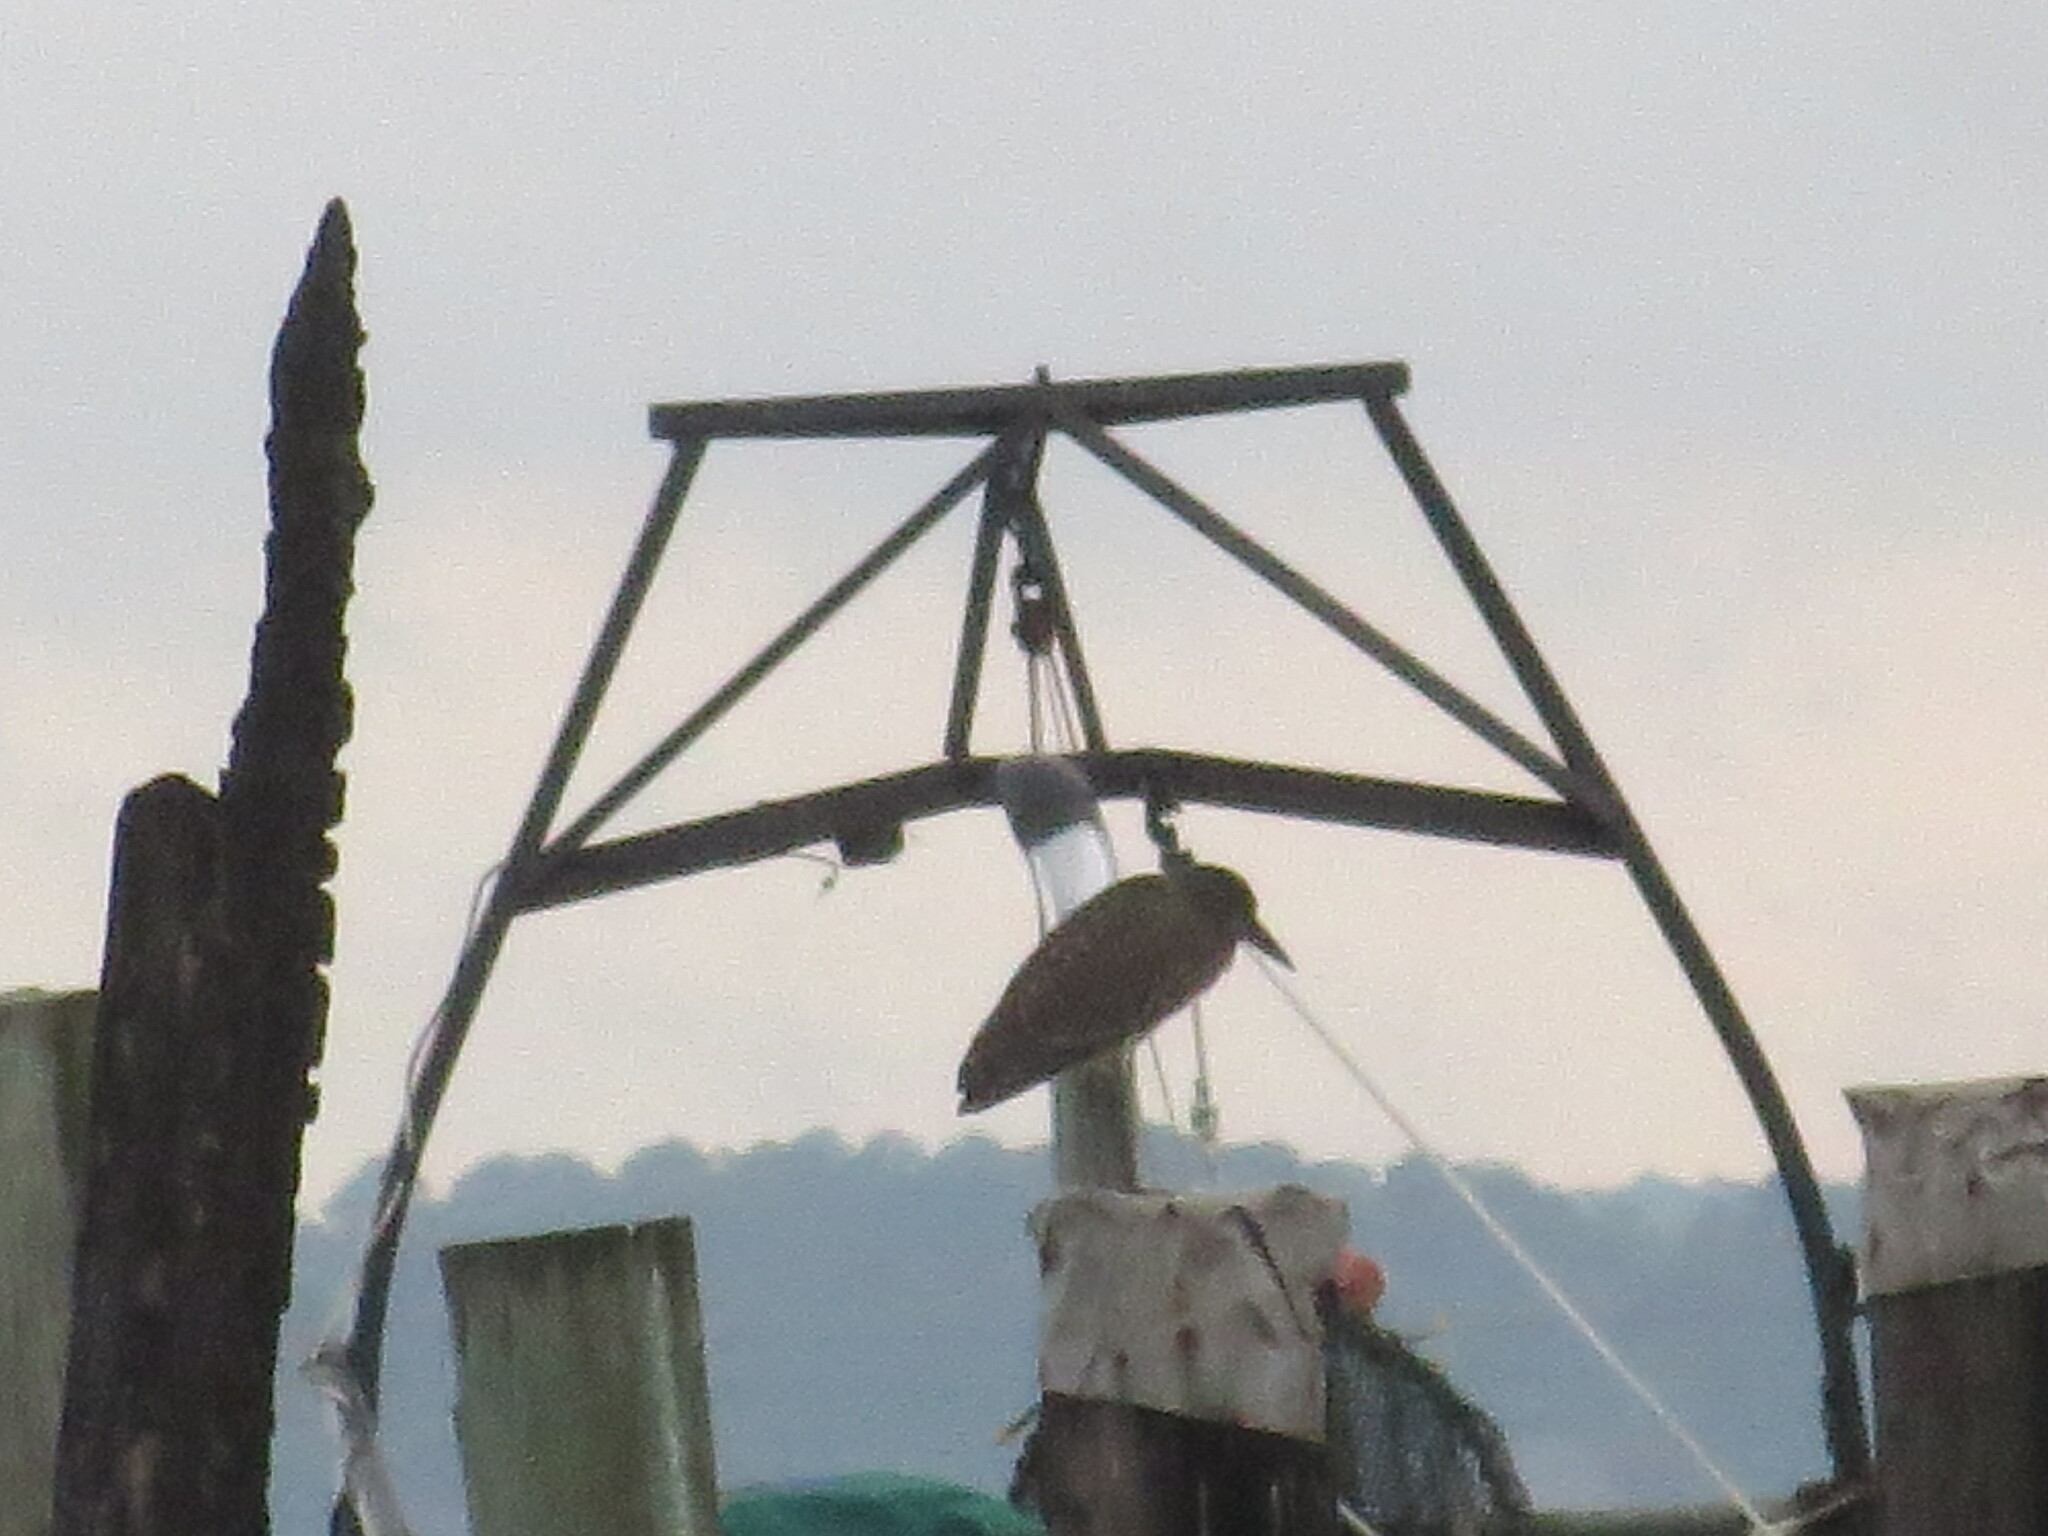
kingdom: Animalia
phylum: Chordata
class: Aves
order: Pelecaniformes
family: Ardeidae
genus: Nyctanassa
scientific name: Nyctanassa violacea
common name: Yellow-crowned night heron
